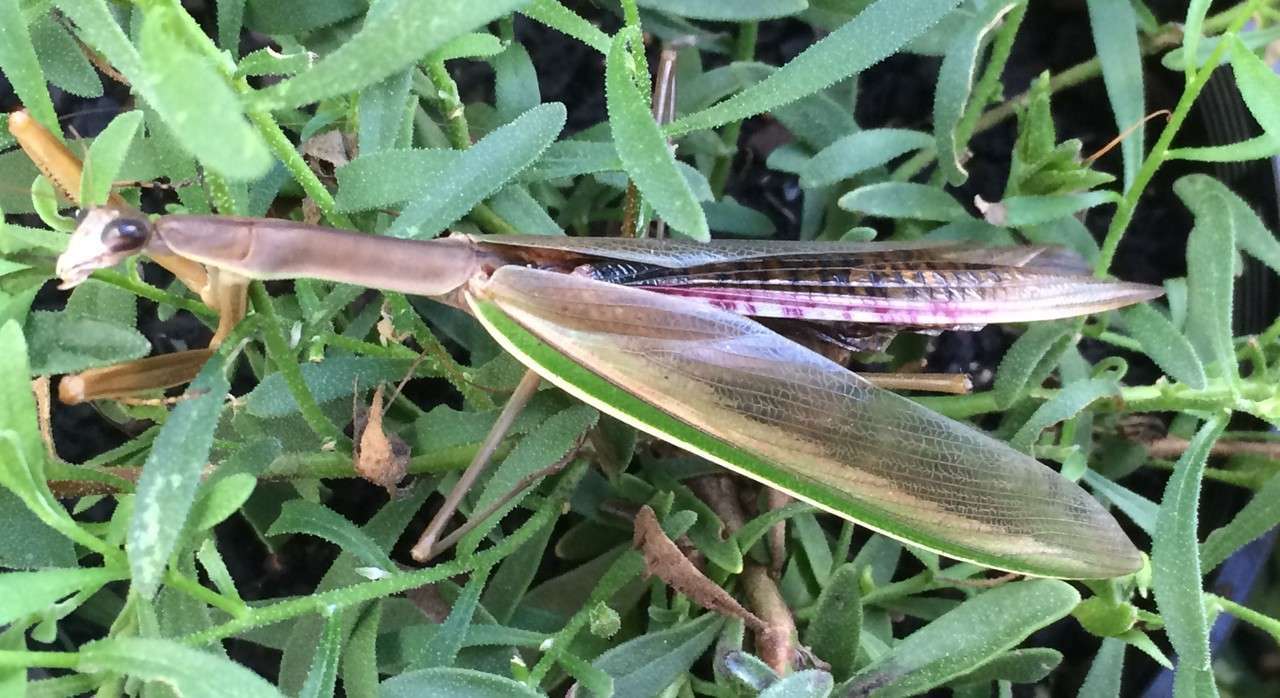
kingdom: Animalia
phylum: Arthropoda
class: Insecta
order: Mantodea
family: Mantidae
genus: Tenodera
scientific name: Tenodera australasiae
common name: Purple-winged mantis
